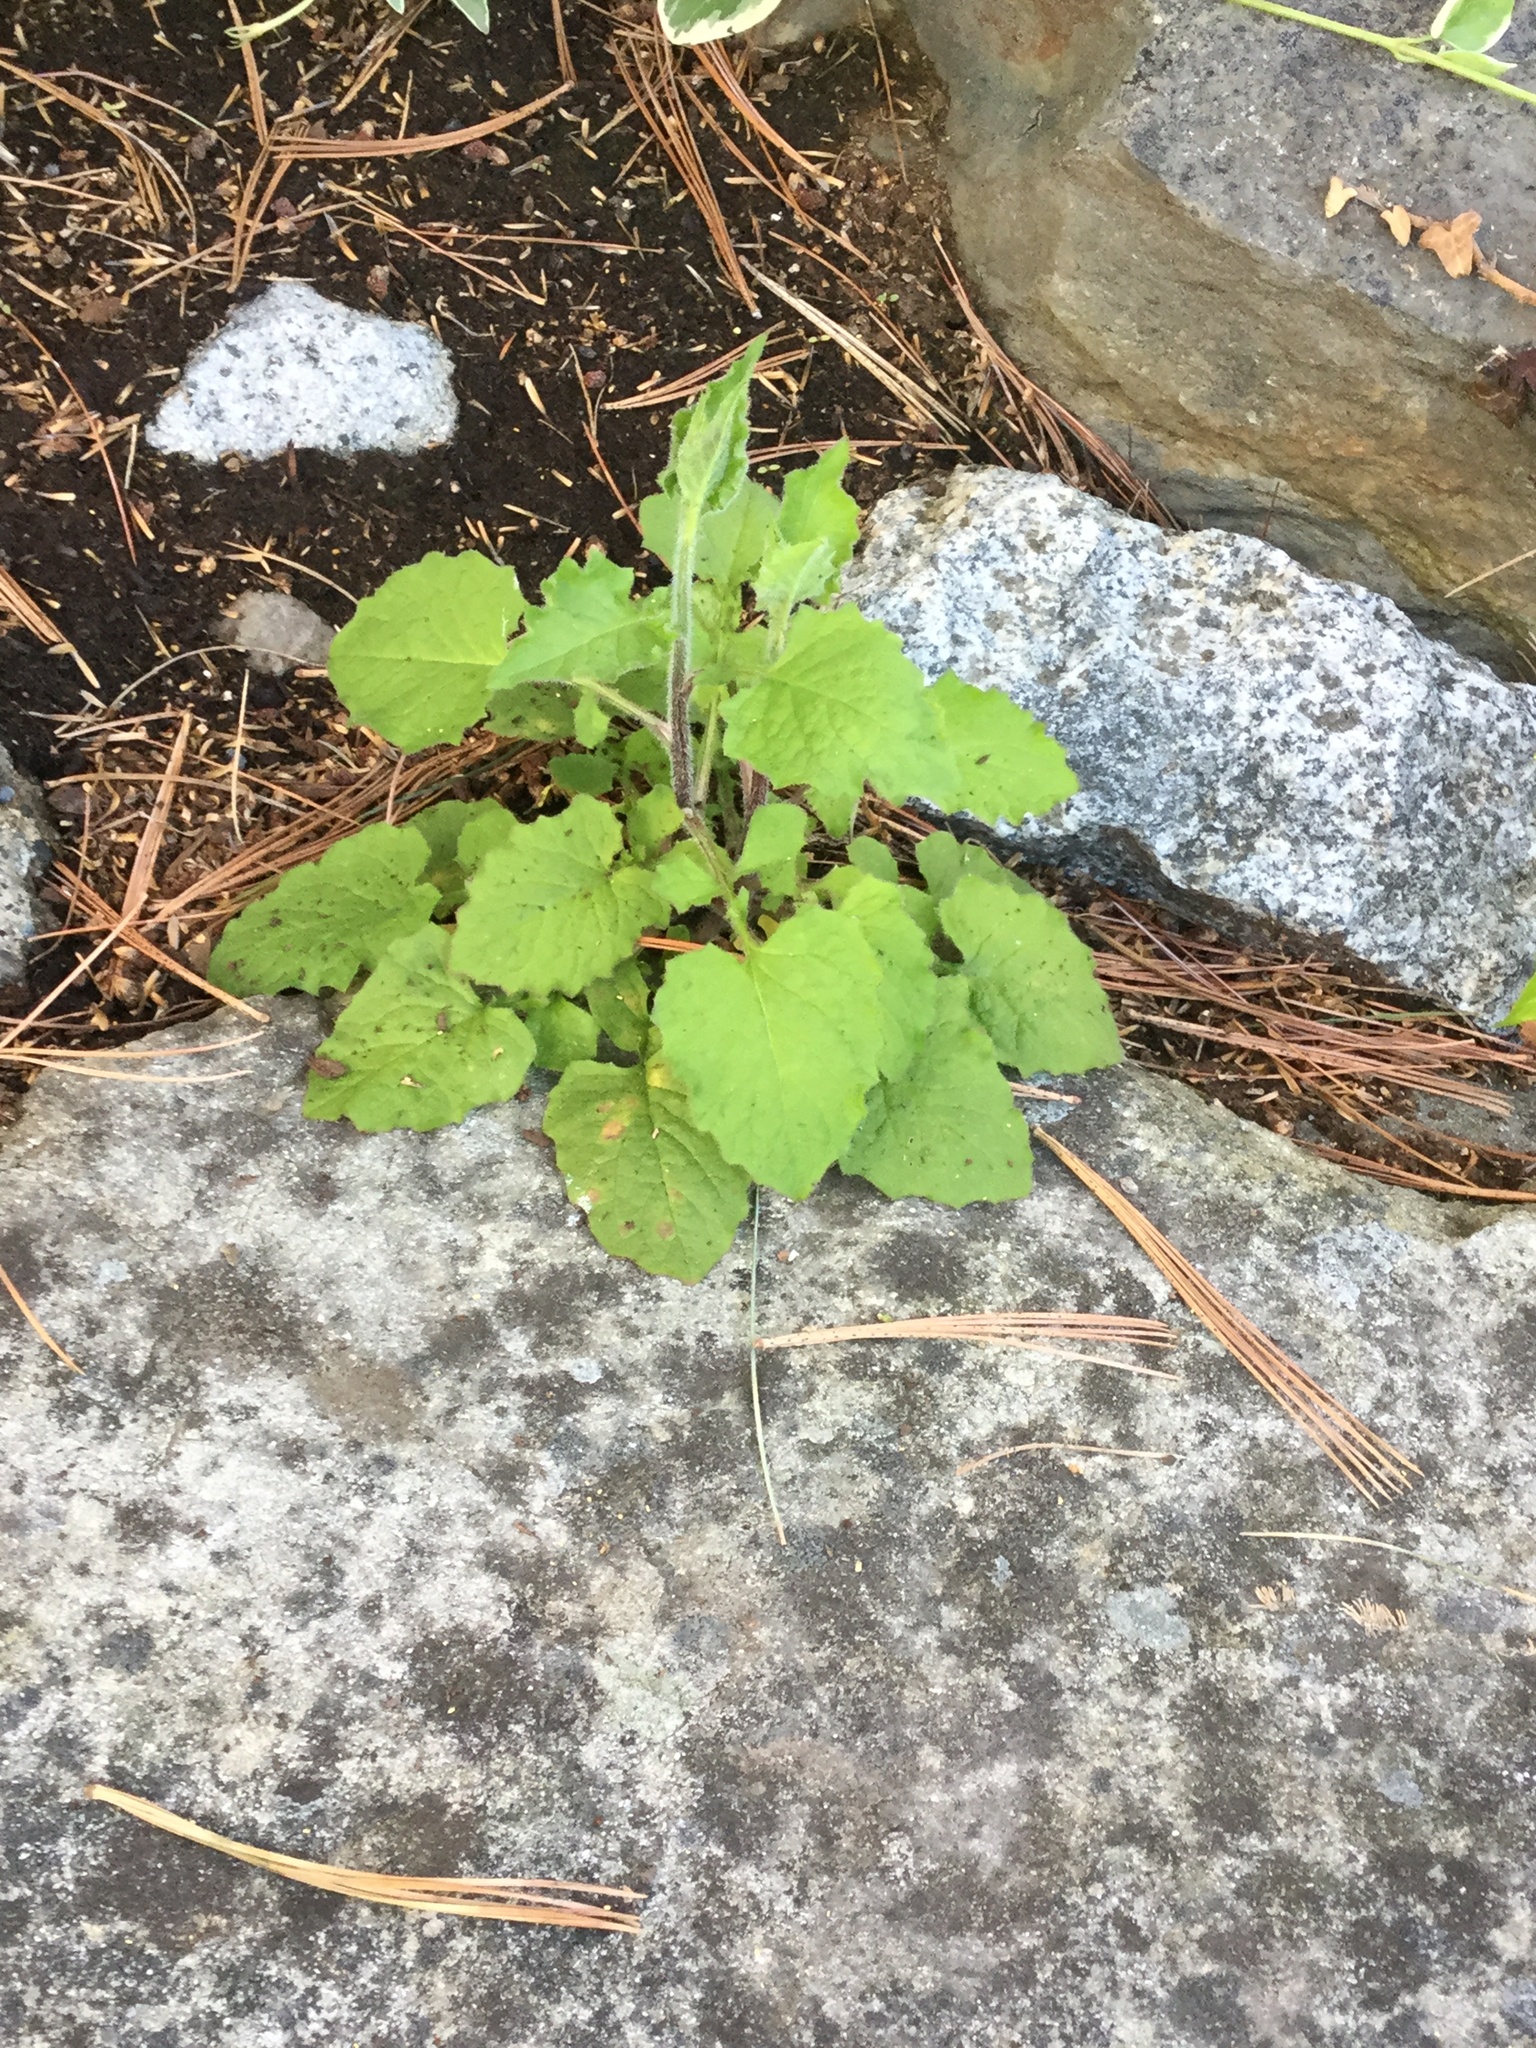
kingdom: Plantae
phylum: Tracheophyta
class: Magnoliopsida
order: Asterales
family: Asteraceae
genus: Lapsana
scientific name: Lapsana communis
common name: Nipplewort
